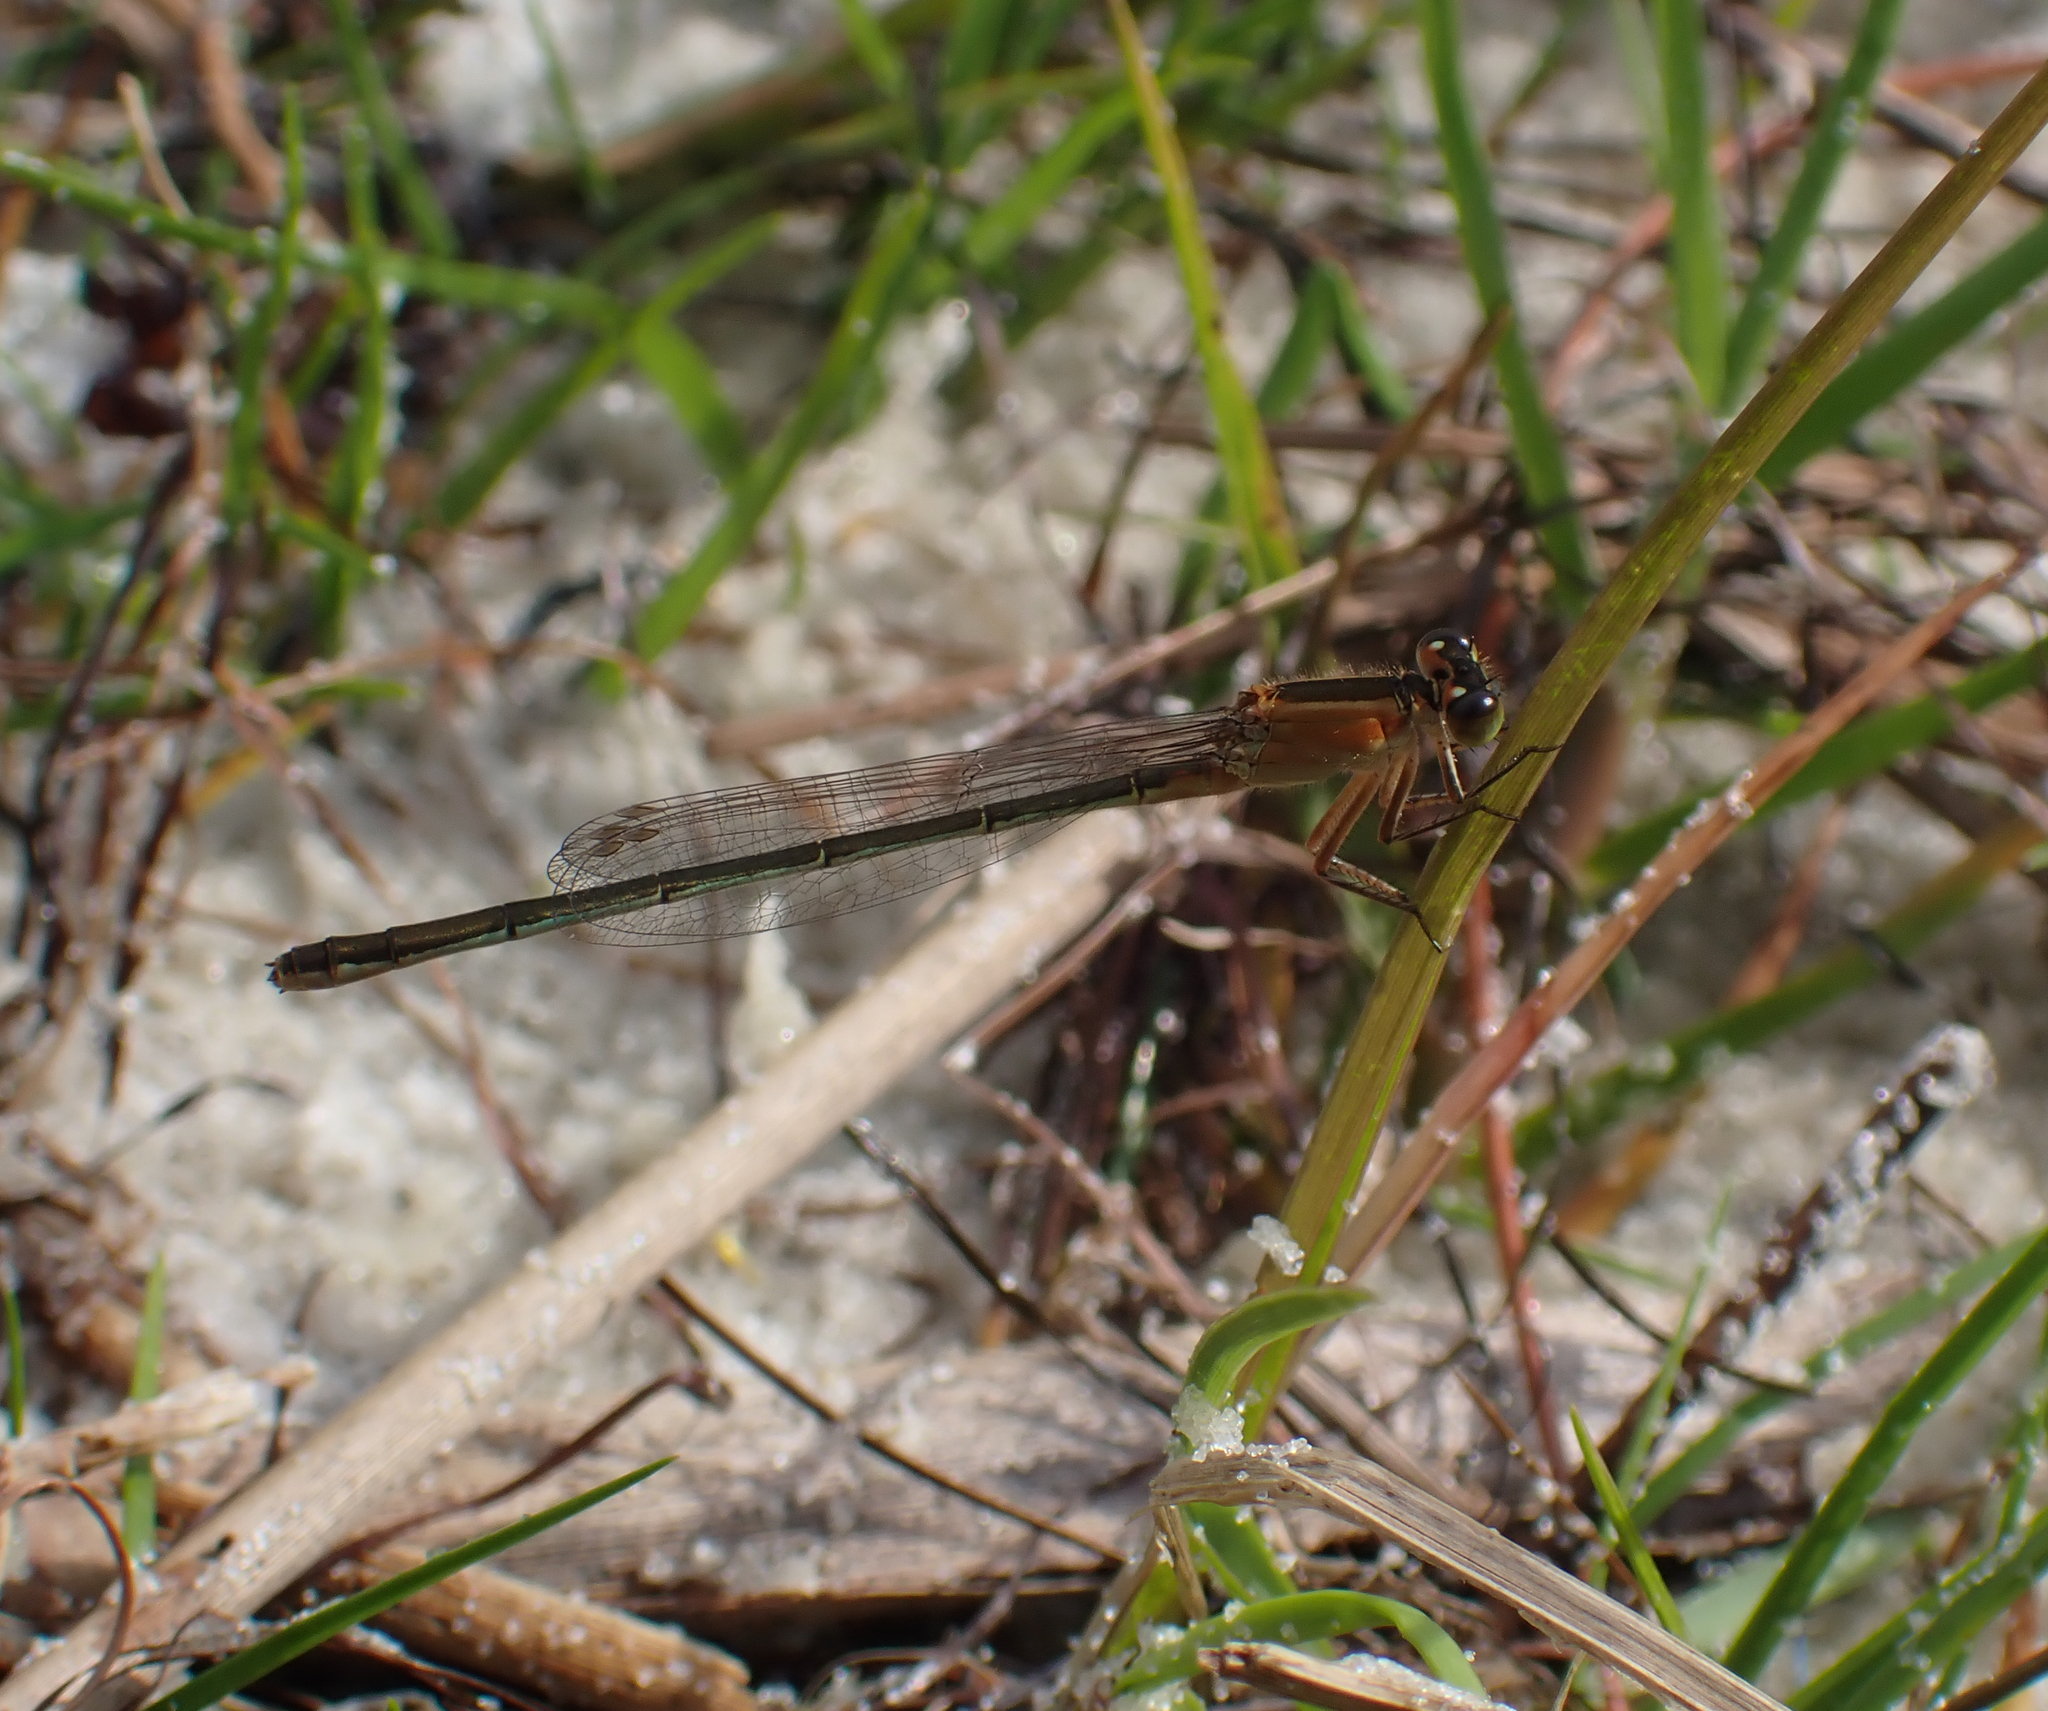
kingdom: Animalia
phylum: Arthropoda
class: Insecta
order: Odonata
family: Coenagrionidae
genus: Ischnura
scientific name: Ischnura ramburii
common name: Rambur's forktail
